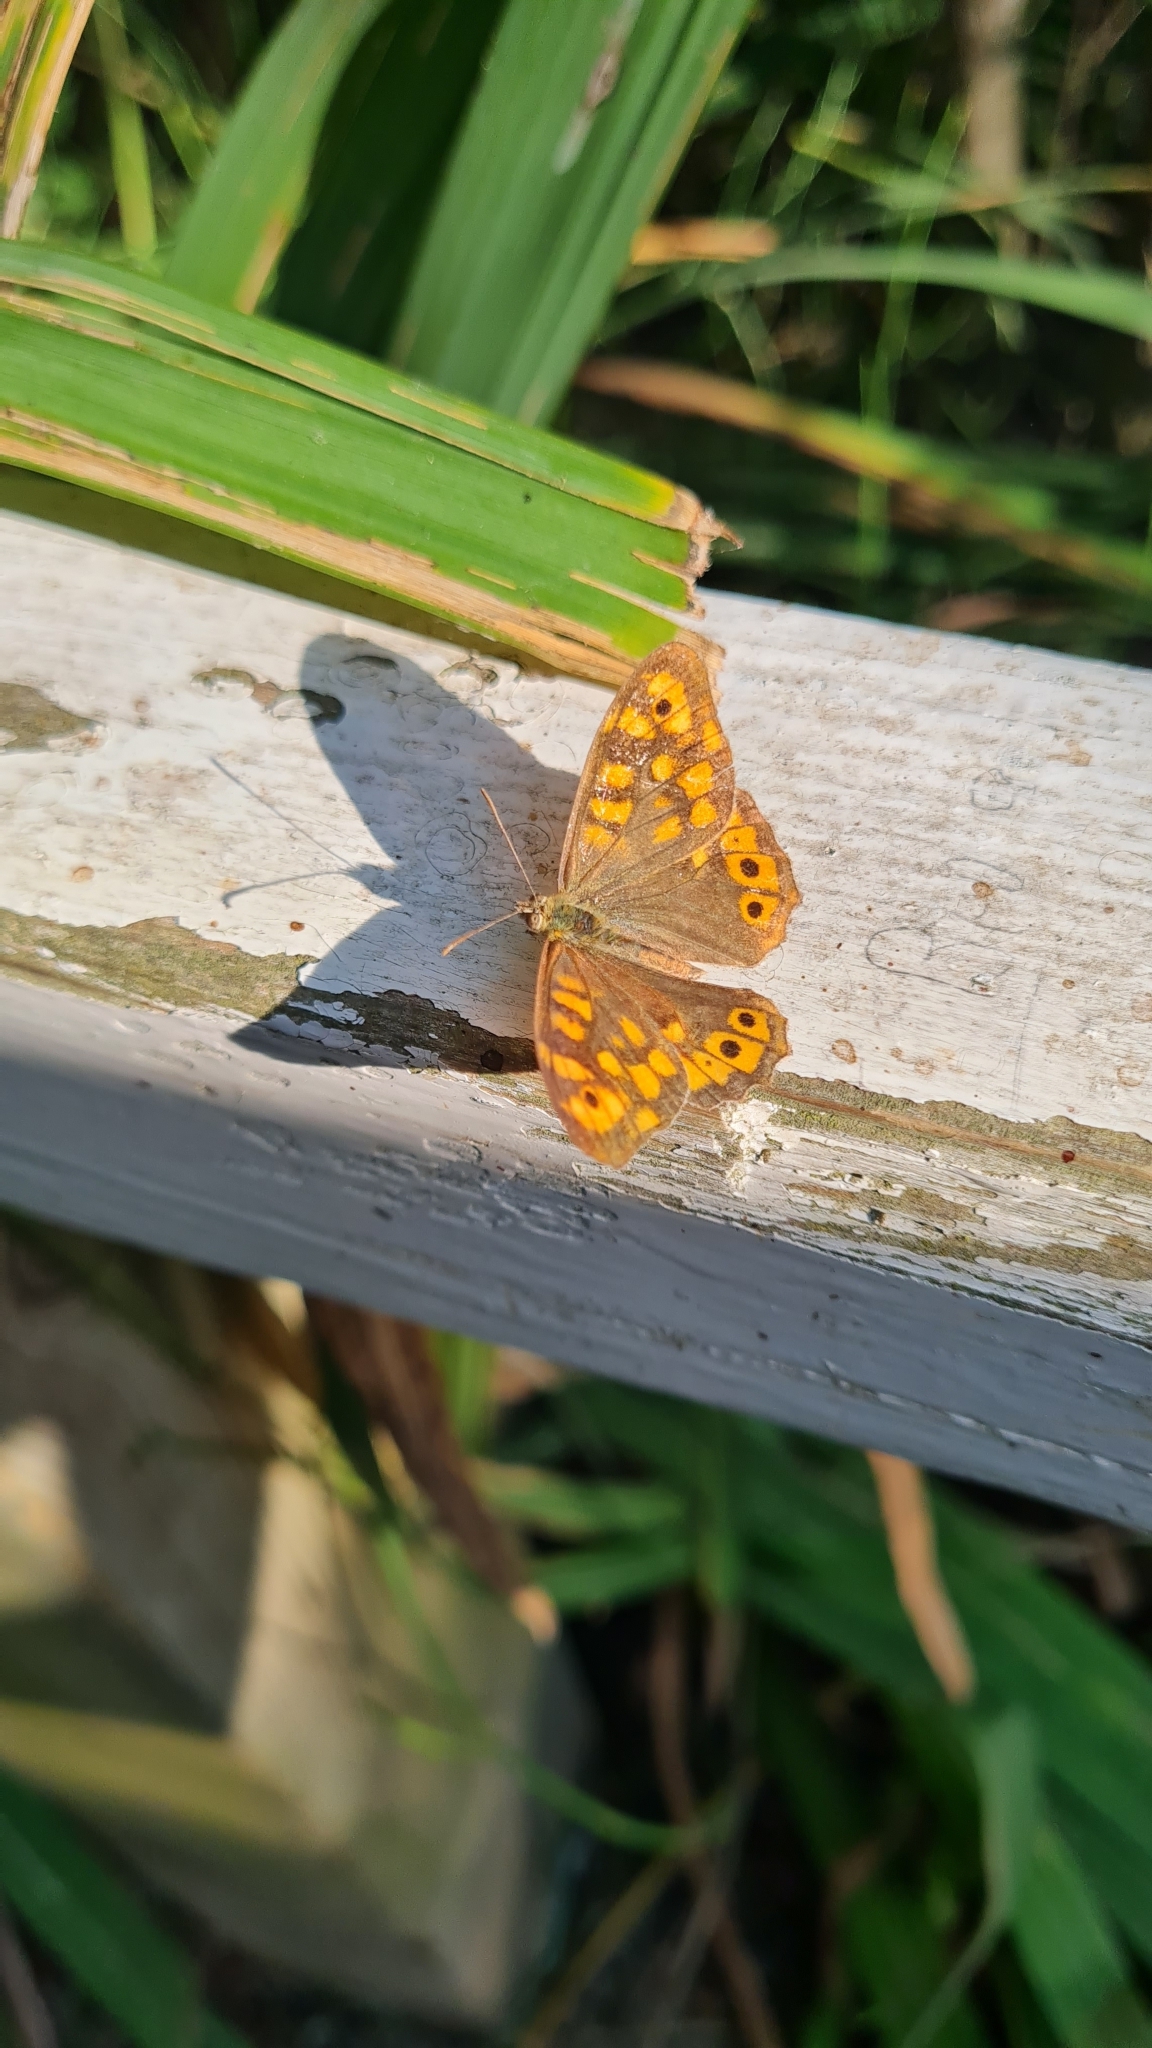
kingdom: Animalia
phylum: Arthropoda
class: Insecta
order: Lepidoptera
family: Nymphalidae
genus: Pararge
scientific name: Pararge aegeria
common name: Speckled wood
